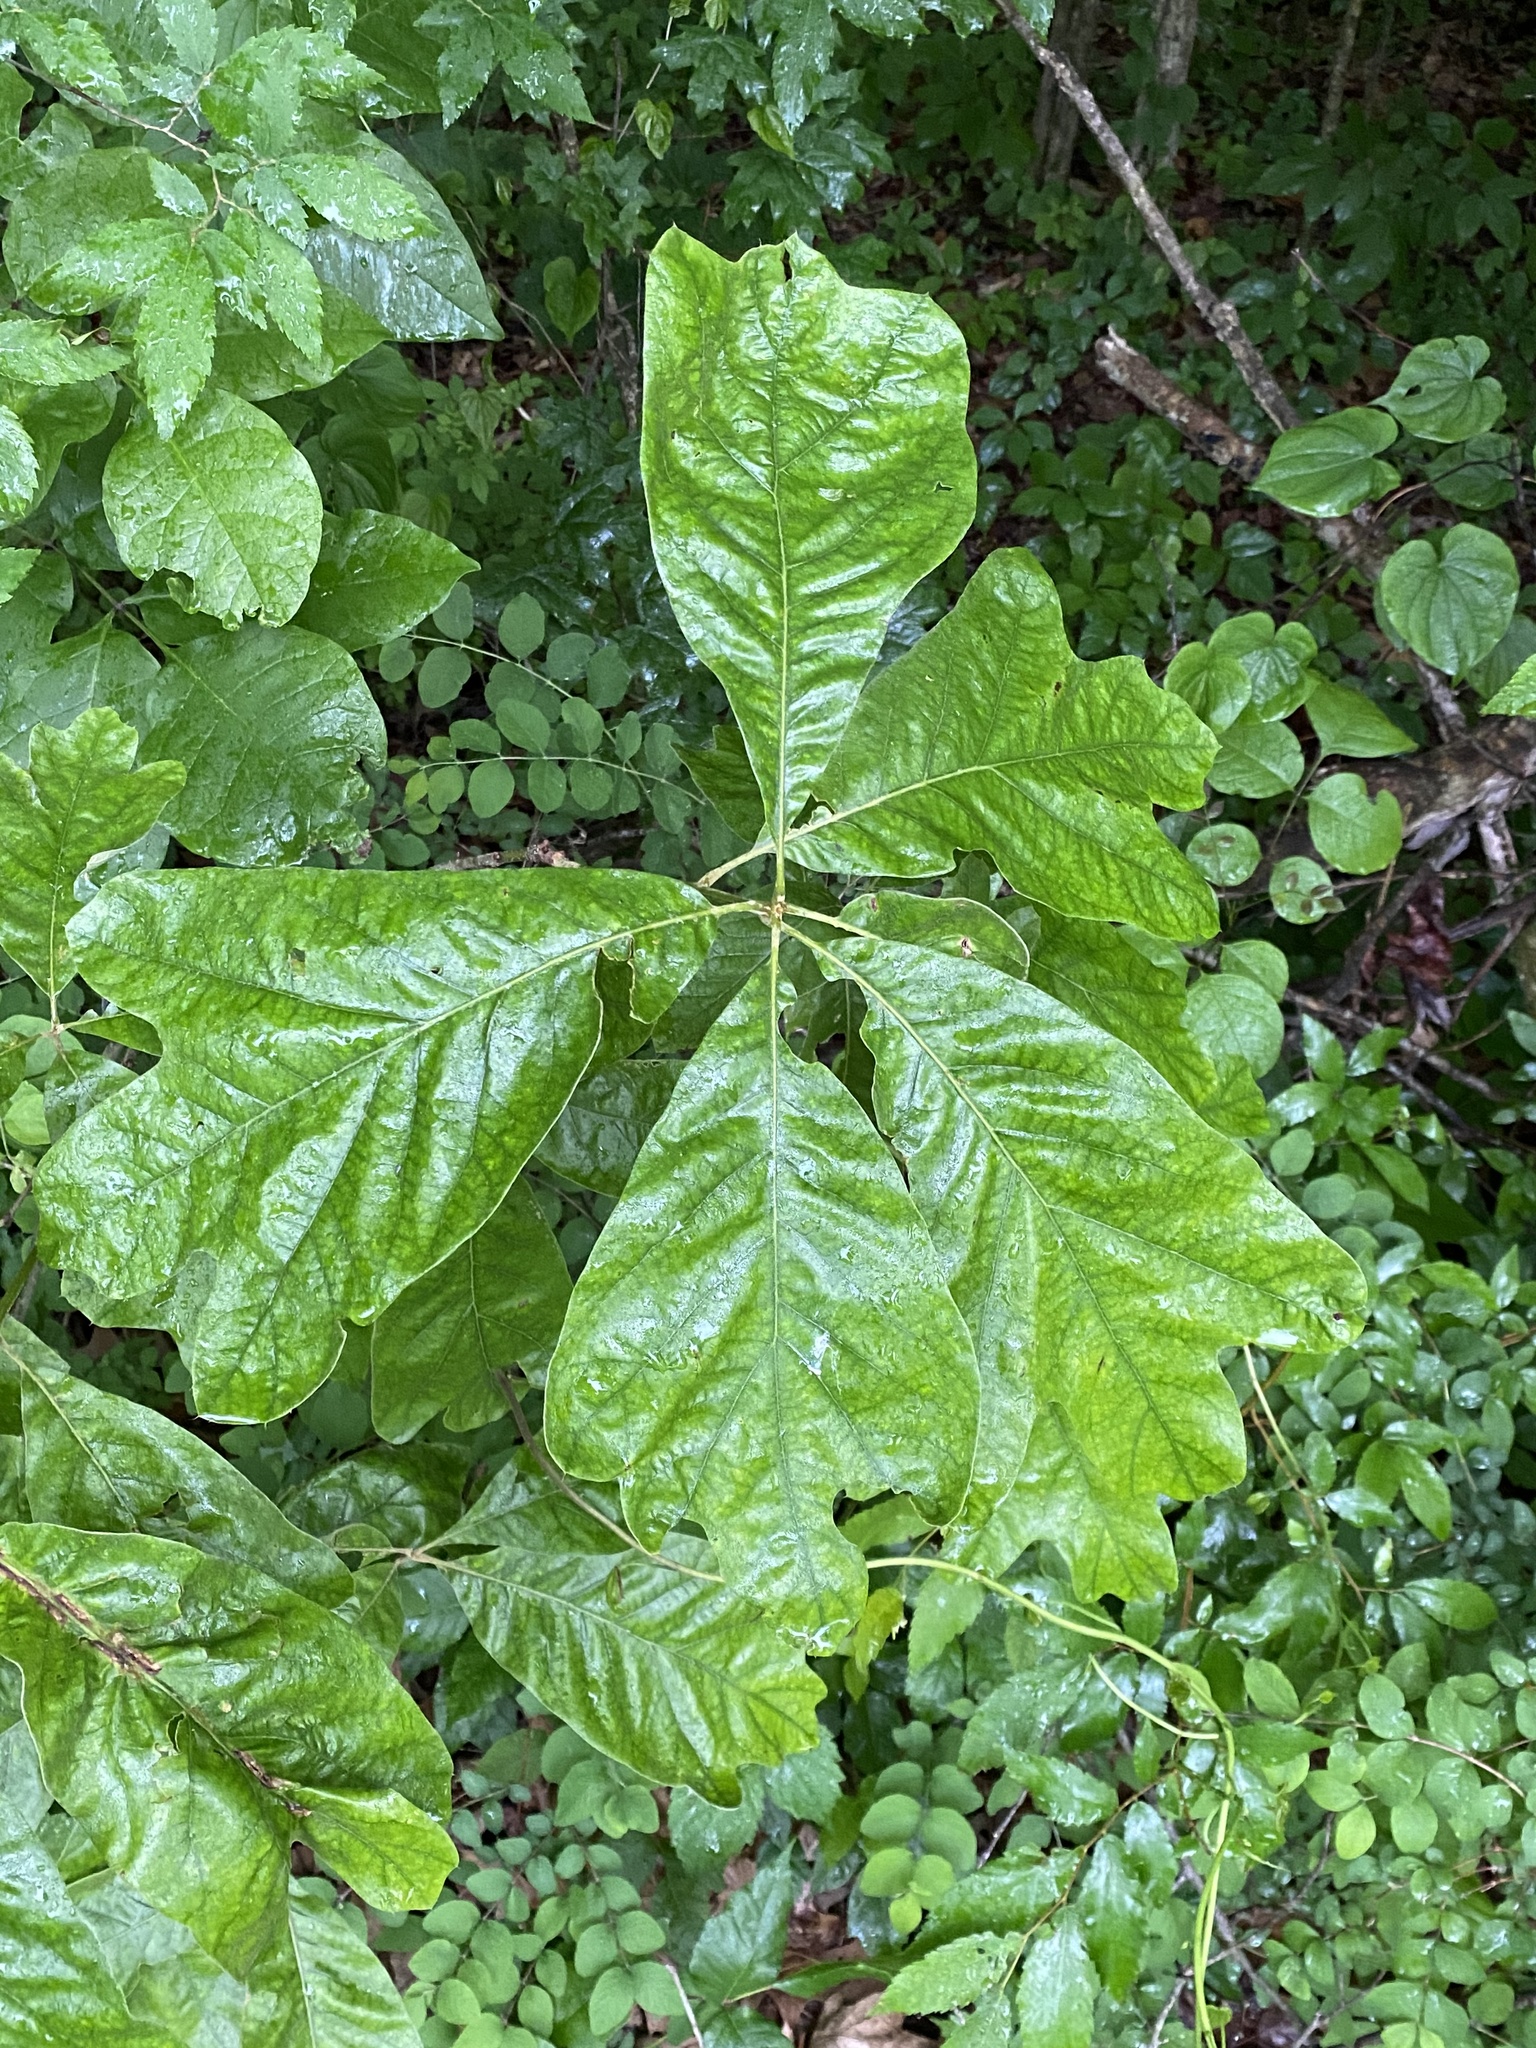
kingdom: Plantae
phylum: Tracheophyta
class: Magnoliopsida
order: Fagales
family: Fagaceae
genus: Quercus
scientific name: Quercus falcata
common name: Southern red oak
